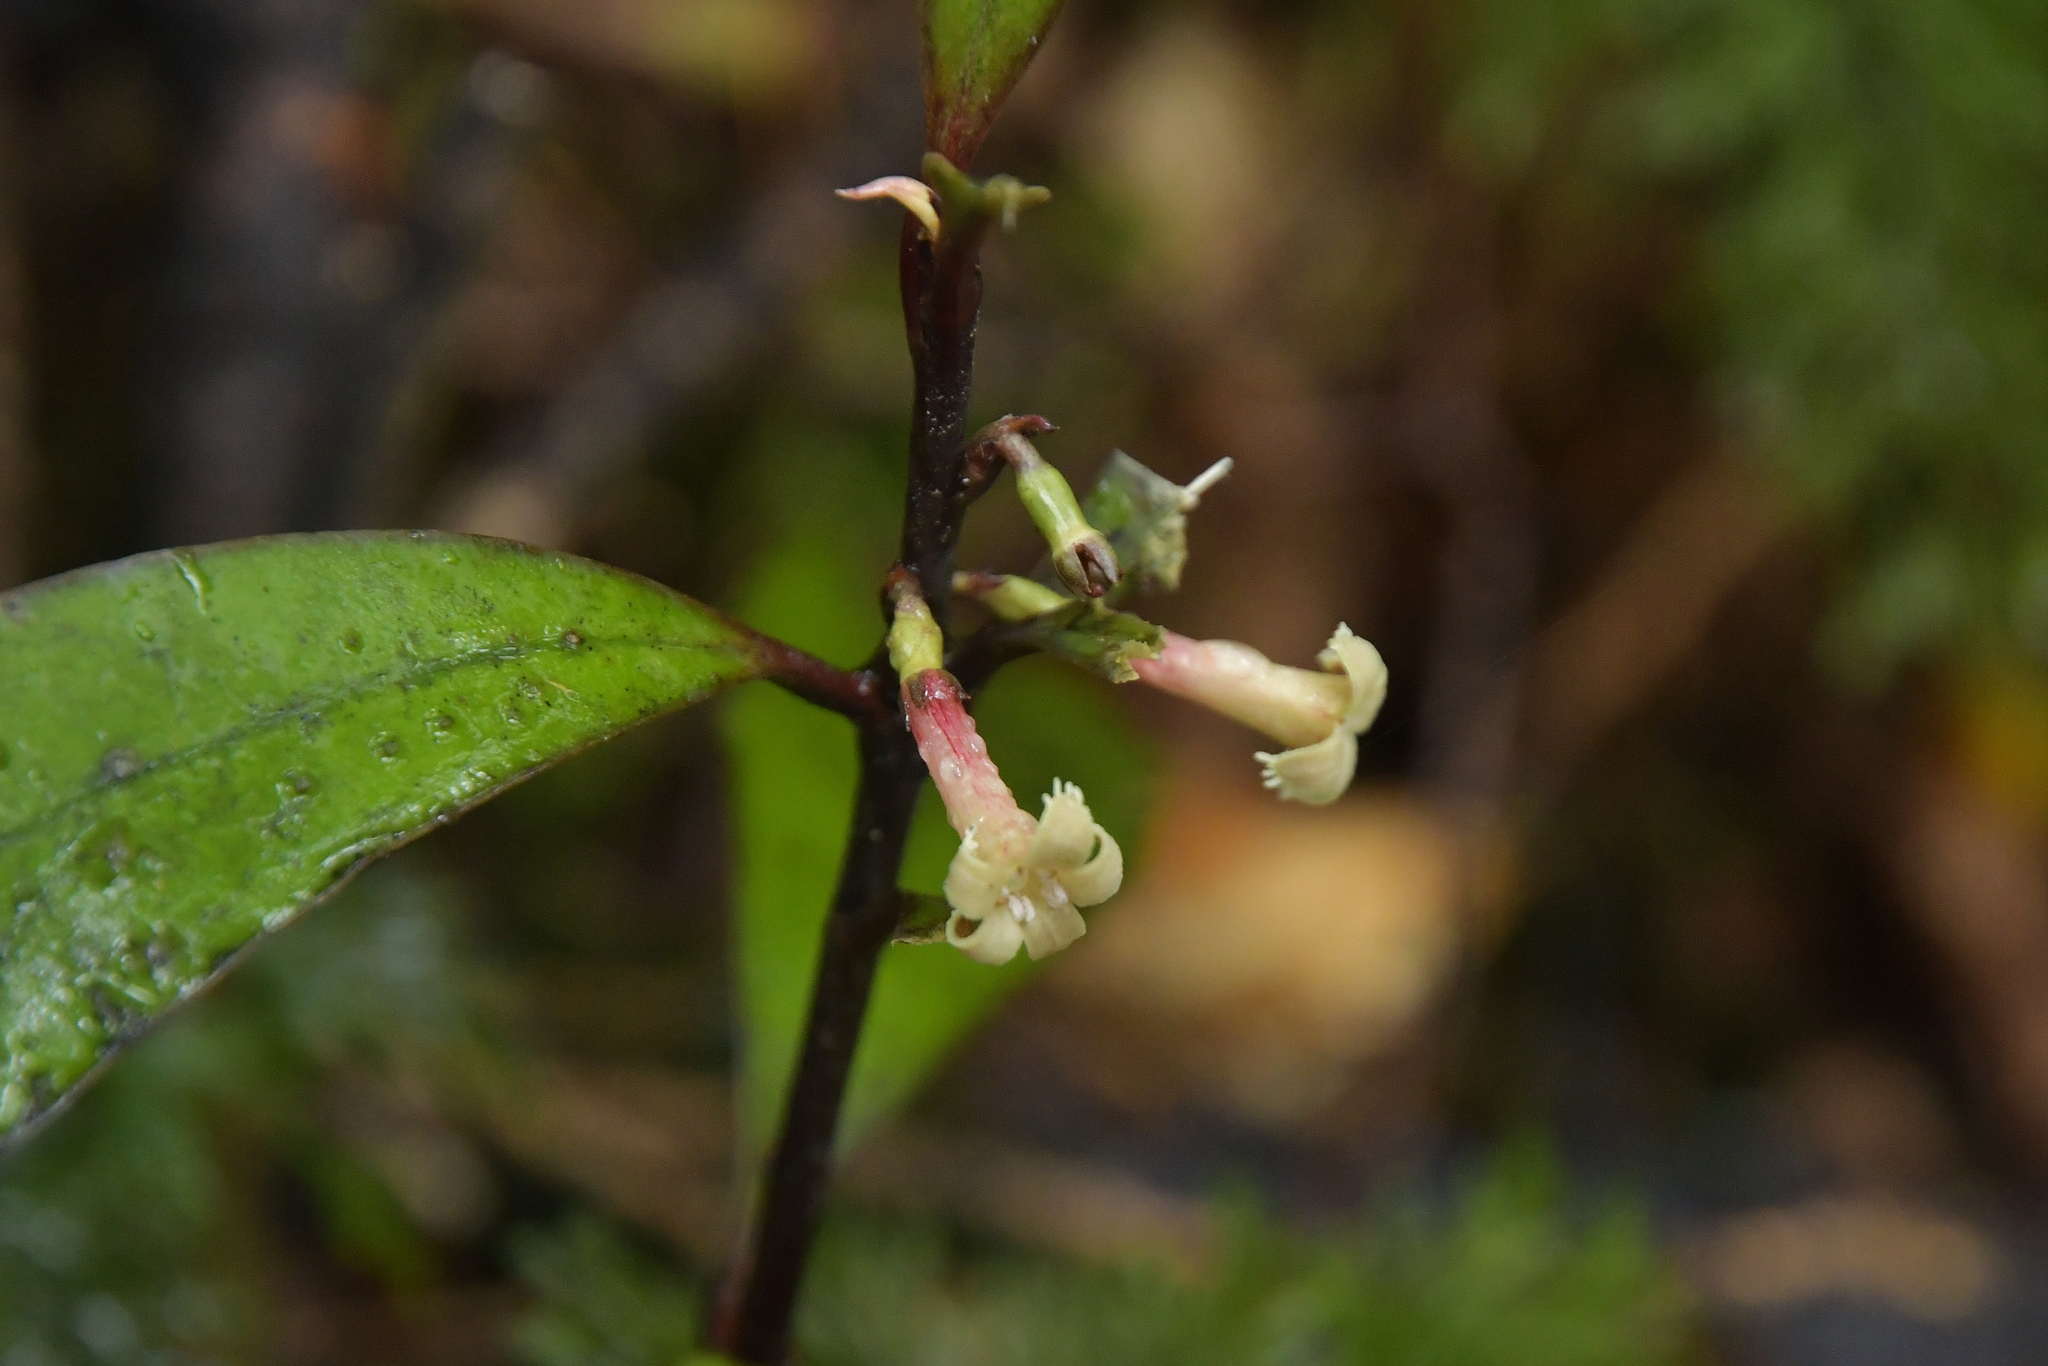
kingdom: Plantae
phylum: Tracheophyta
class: Magnoliopsida
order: Asterales
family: Alseuosmiaceae
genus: Alseuosmia
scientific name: Alseuosmia pusilla
